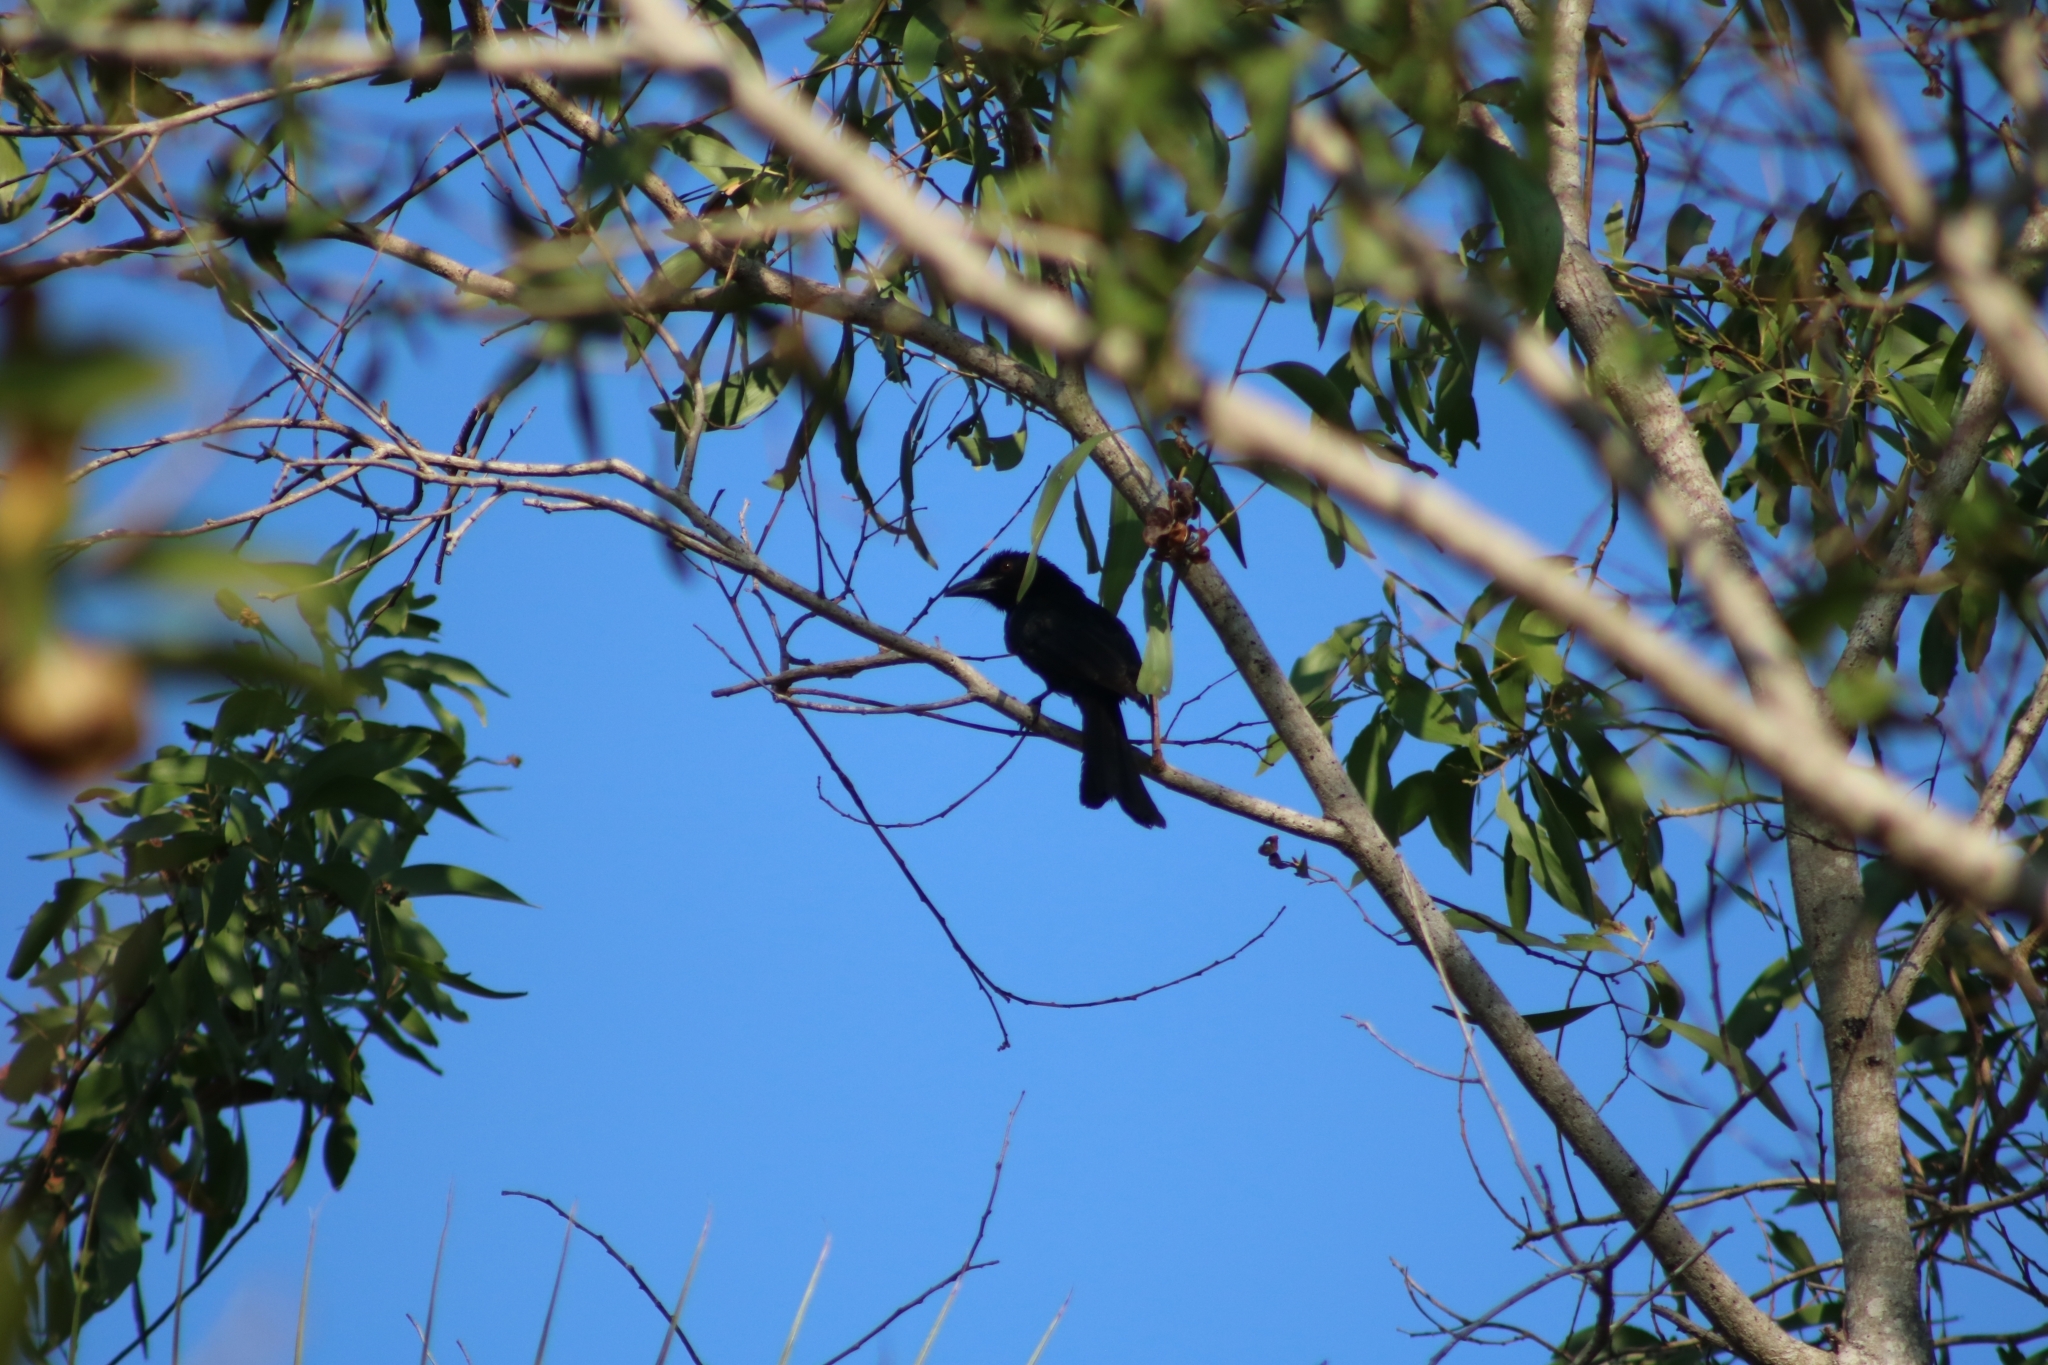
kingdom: Animalia
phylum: Chordata
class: Aves
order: Passeriformes
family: Dicruridae
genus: Dicrurus
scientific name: Dicrurus bracteatus
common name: Spangled drongo
